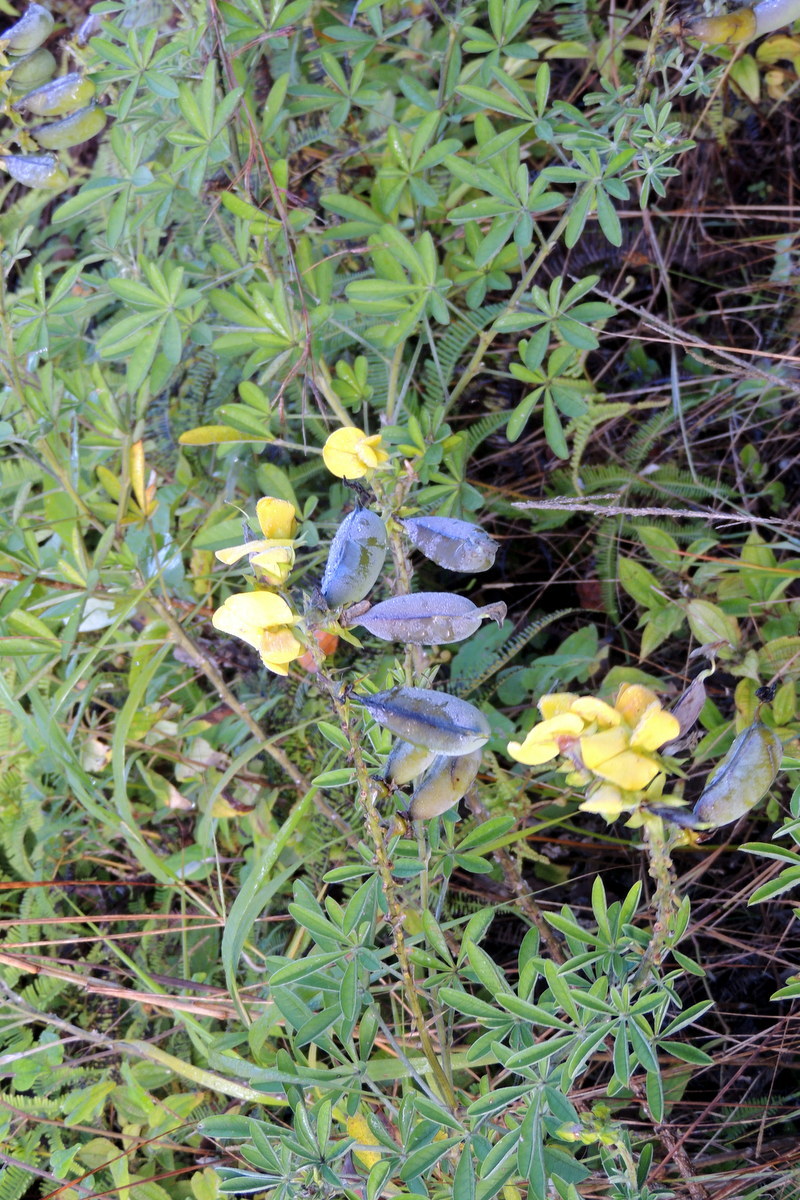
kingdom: Plantae
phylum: Tracheophyta
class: Magnoliopsida
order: Fabales
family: Fabaceae
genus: Crotalaria
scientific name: Crotalaria grahamiana
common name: Bushy rattlepod
